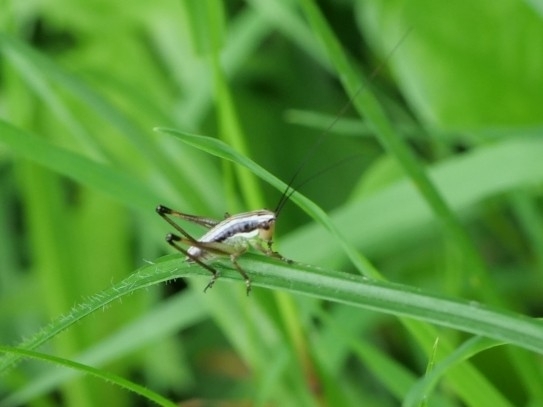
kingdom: Animalia
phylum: Arthropoda
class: Insecta
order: Orthoptera
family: Tettigoniidae
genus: Pachytrachis
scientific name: Pachytrachis gracilis
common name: Graceful bush-cricket
